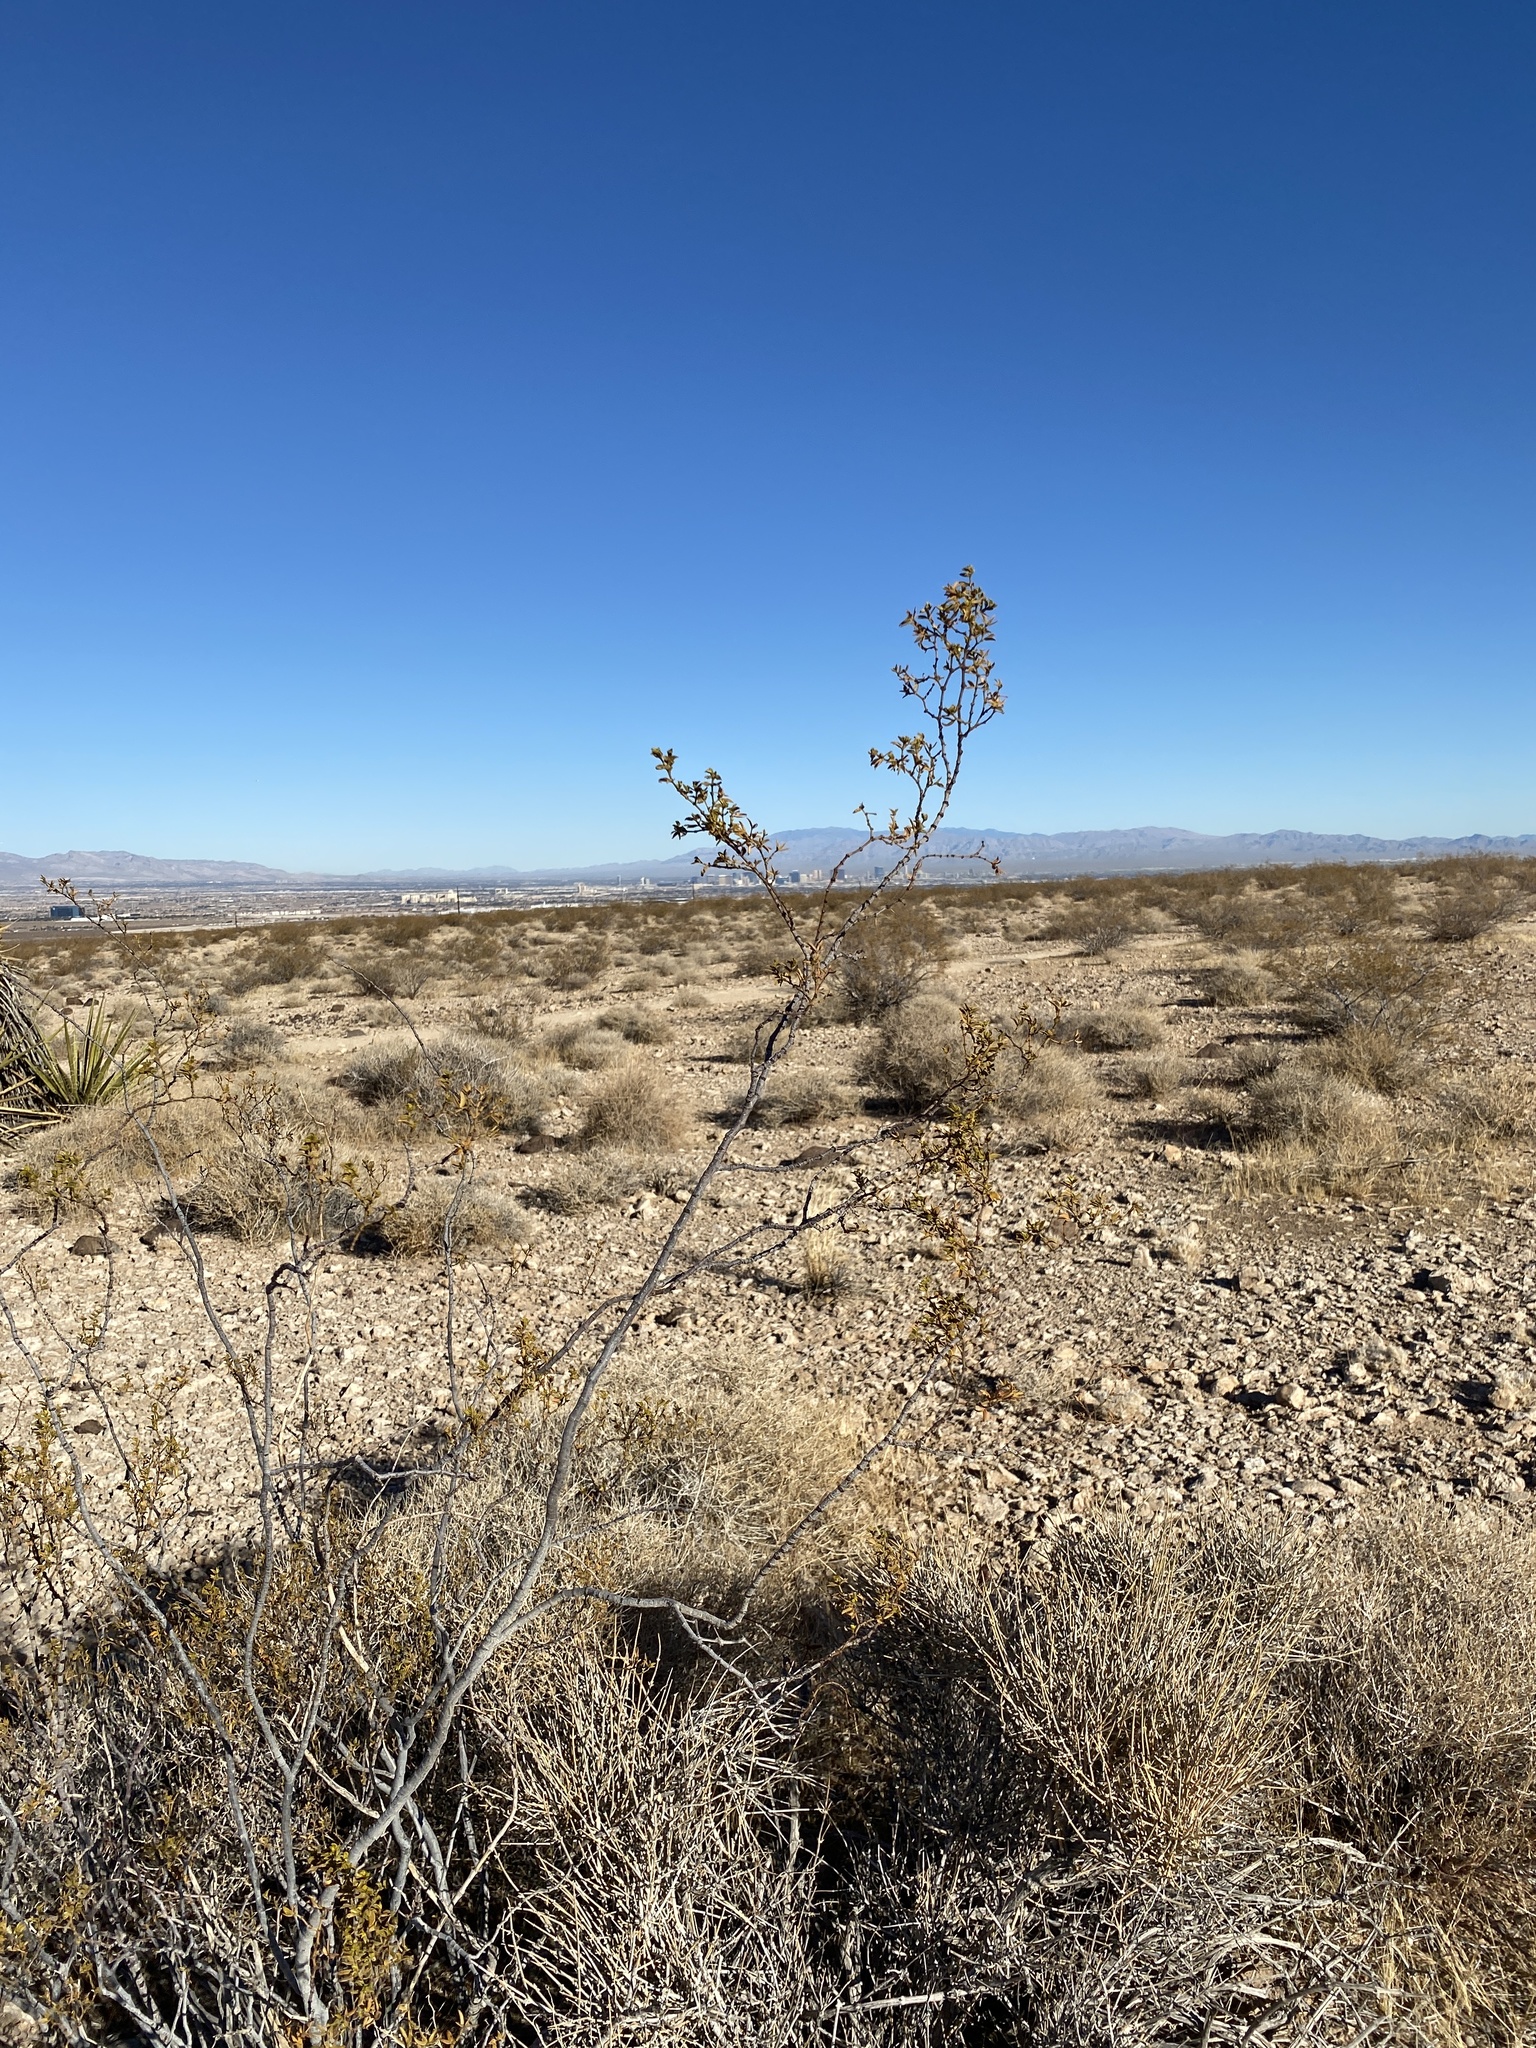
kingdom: Plantae
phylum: Tracheophyta
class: Magnoliopsida
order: Zygophyllales
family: Zygophyllaceae
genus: Larrea
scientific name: Larrea tridentata
